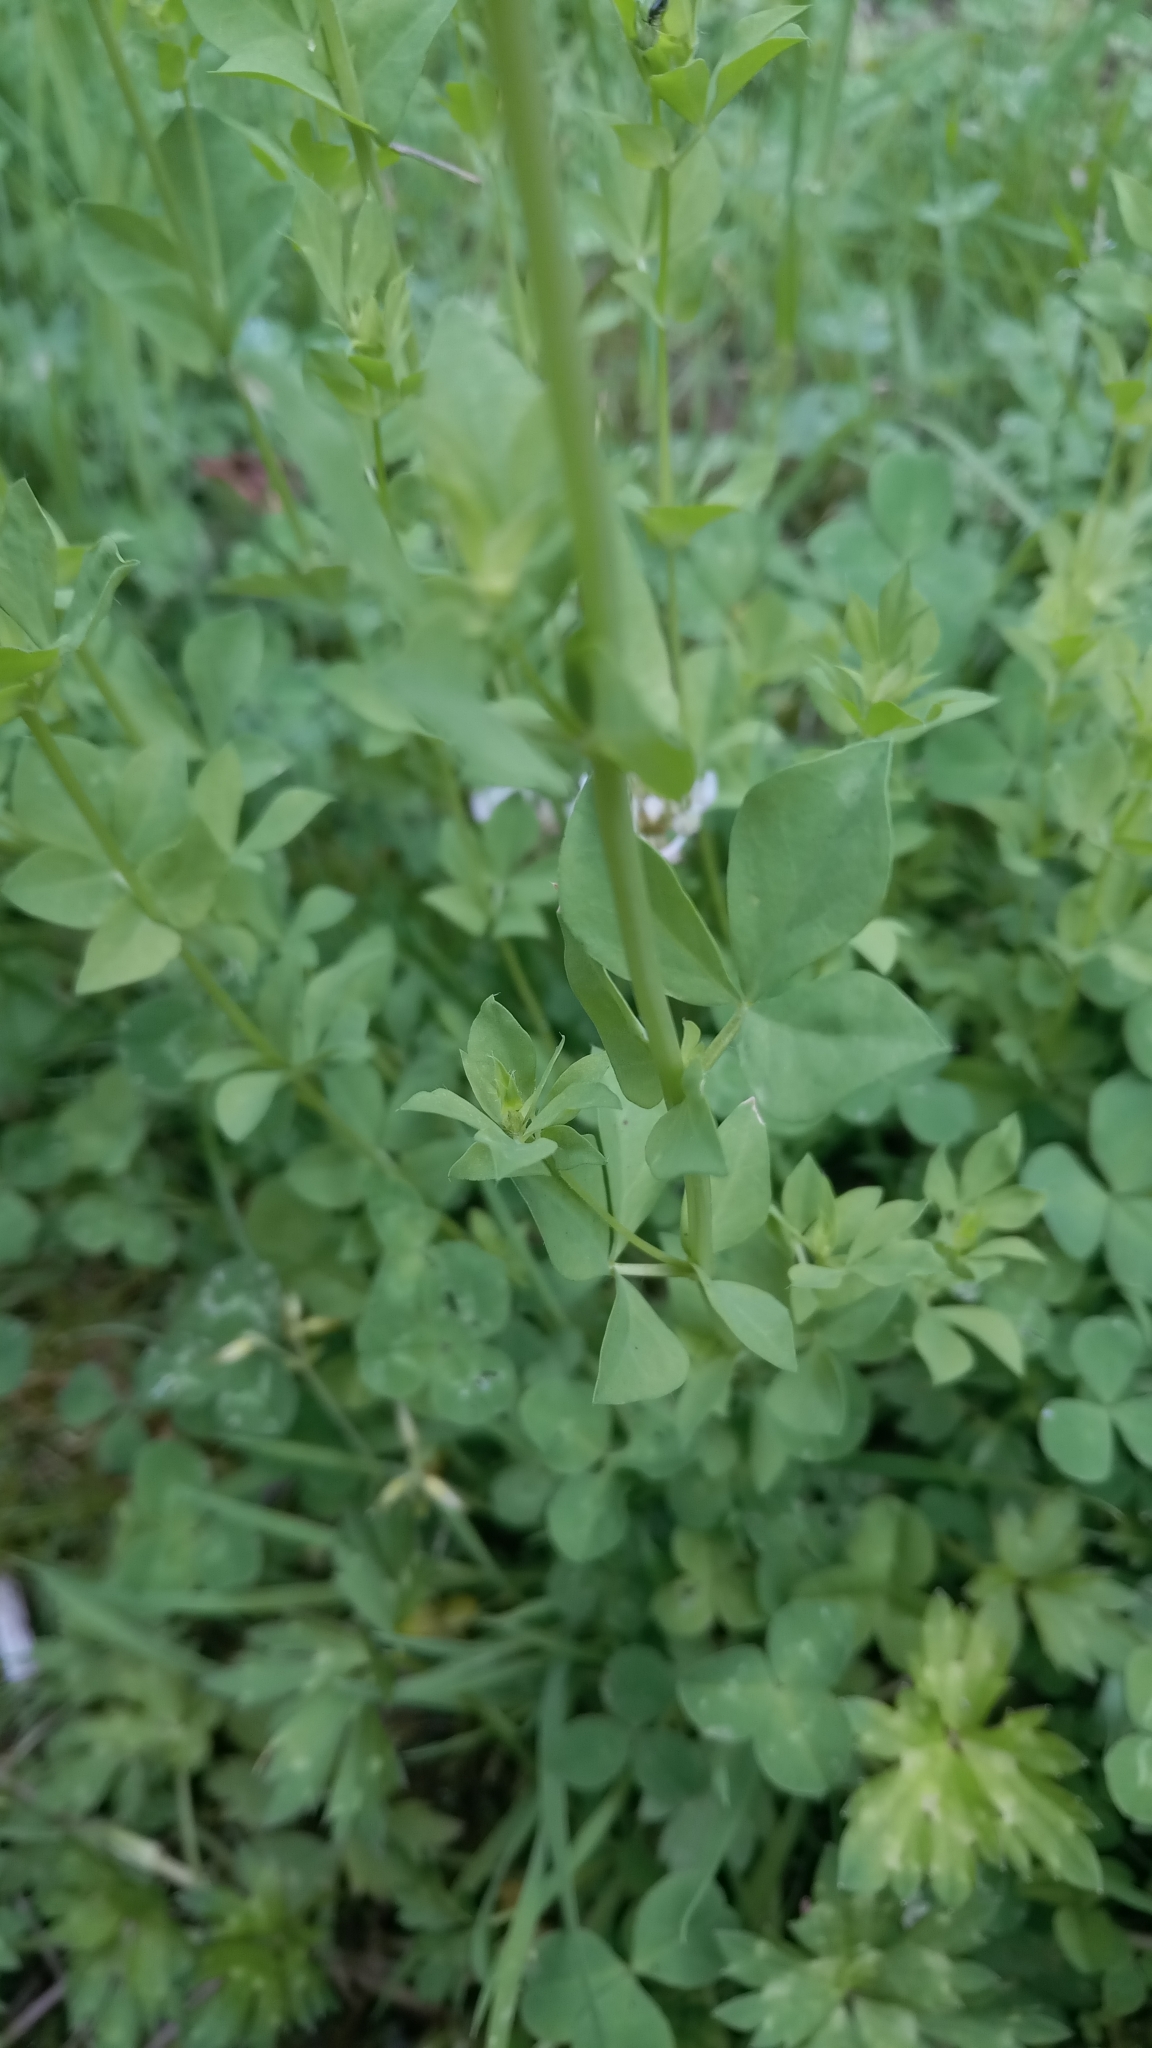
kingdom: Plantae
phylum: Tracheophyta
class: Magnoliopsida
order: Fabales
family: Fabaceae
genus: Lotus
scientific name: Lotus corniculatus
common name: Common bird's-foot-trefoil
